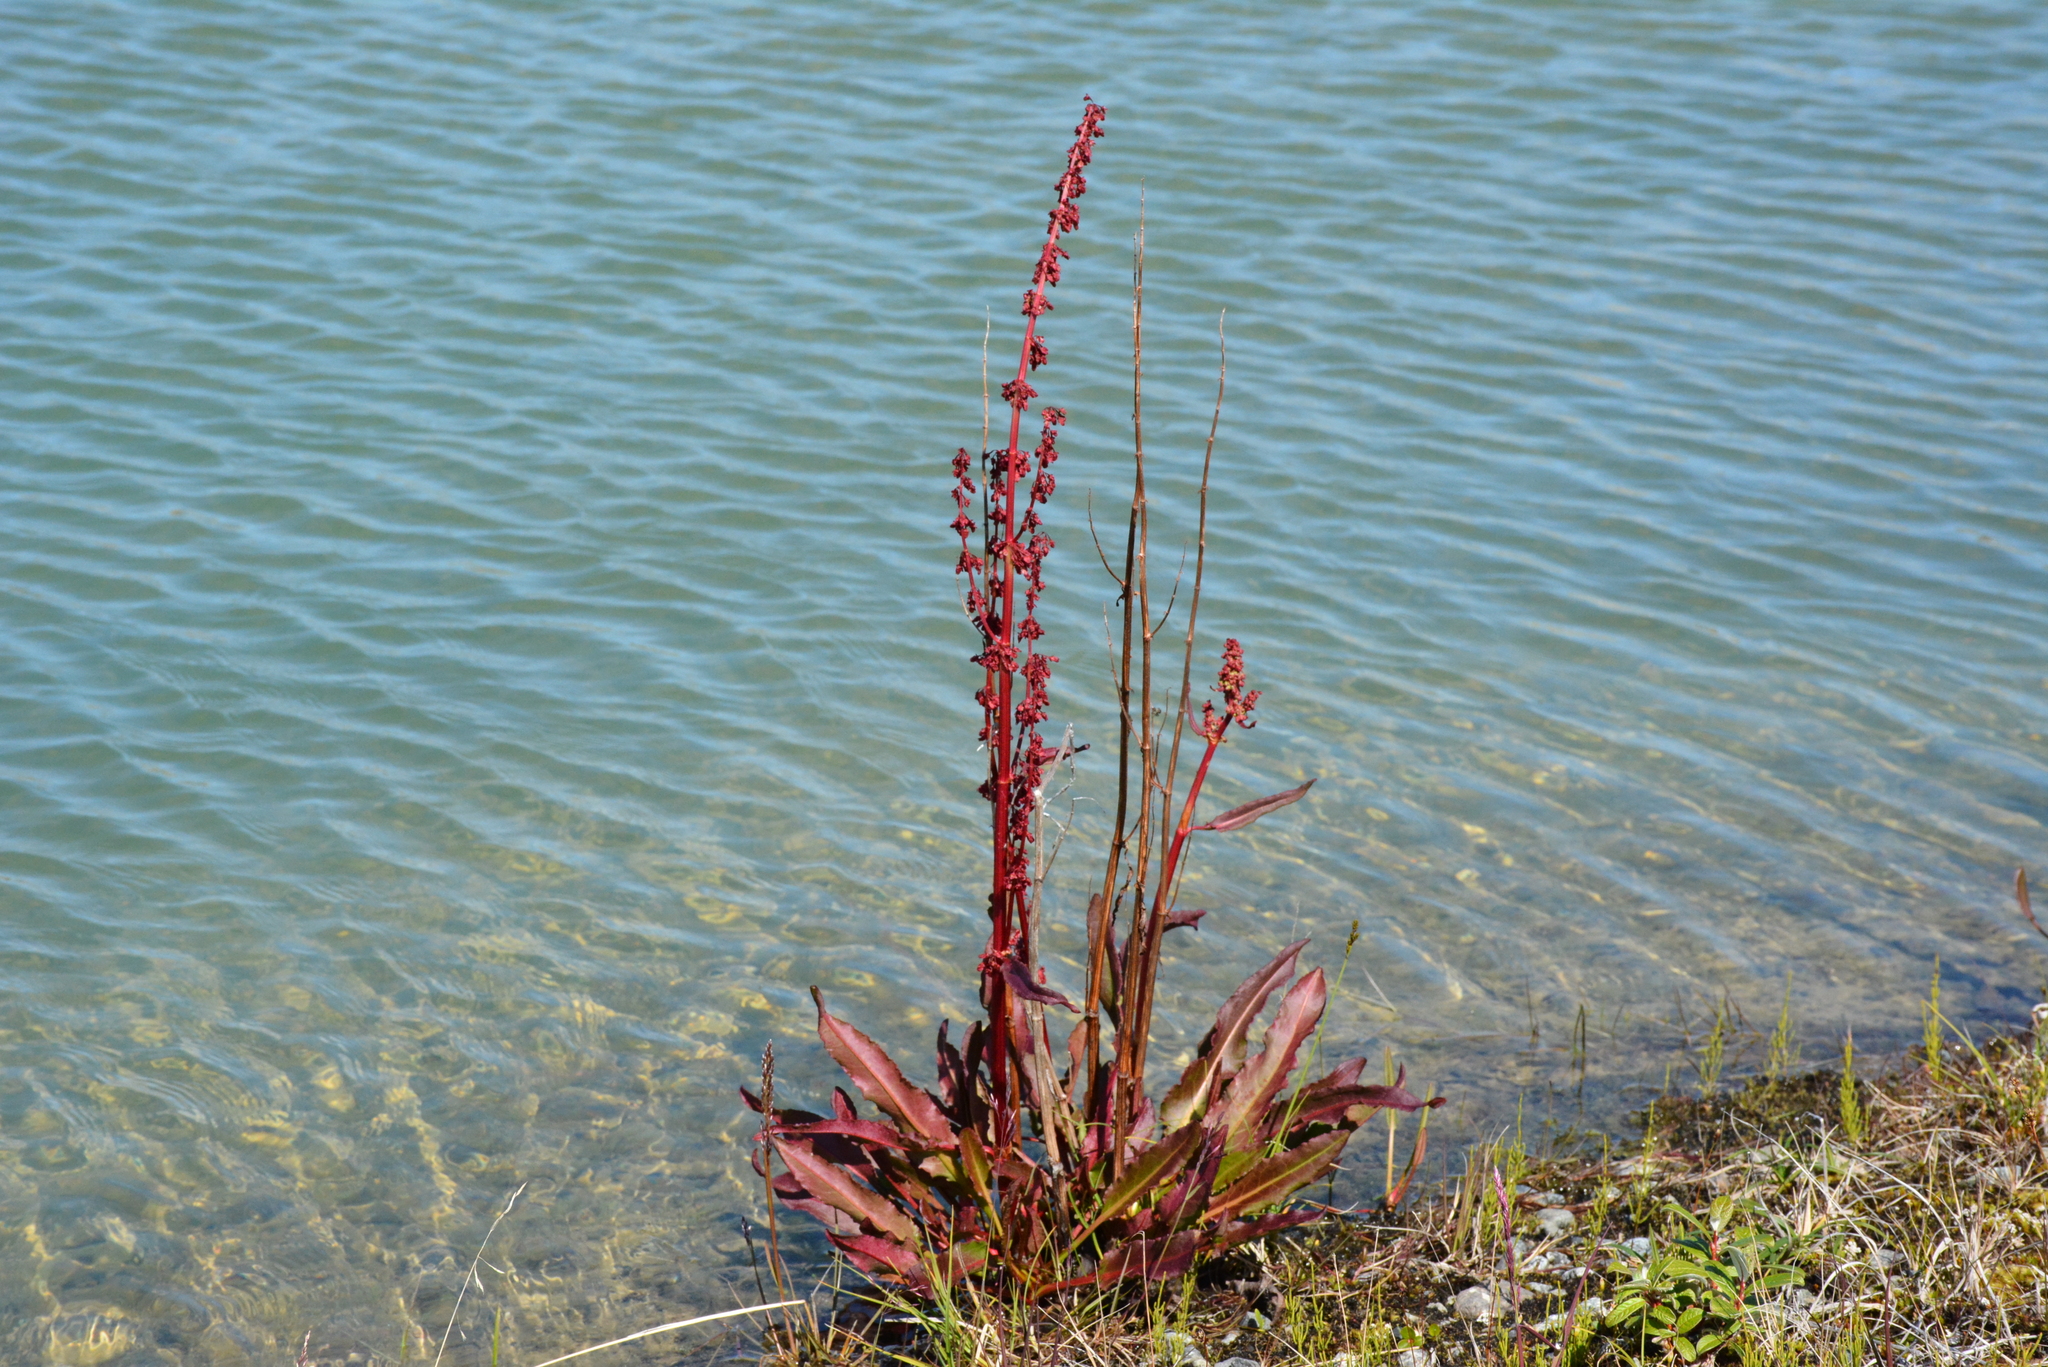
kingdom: Plantae
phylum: Tracheophyta
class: Magnoliopsida
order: Caryophyllales
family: Polygonaceae
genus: Rumex
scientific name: Rumex arcticus
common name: Arctic dock
